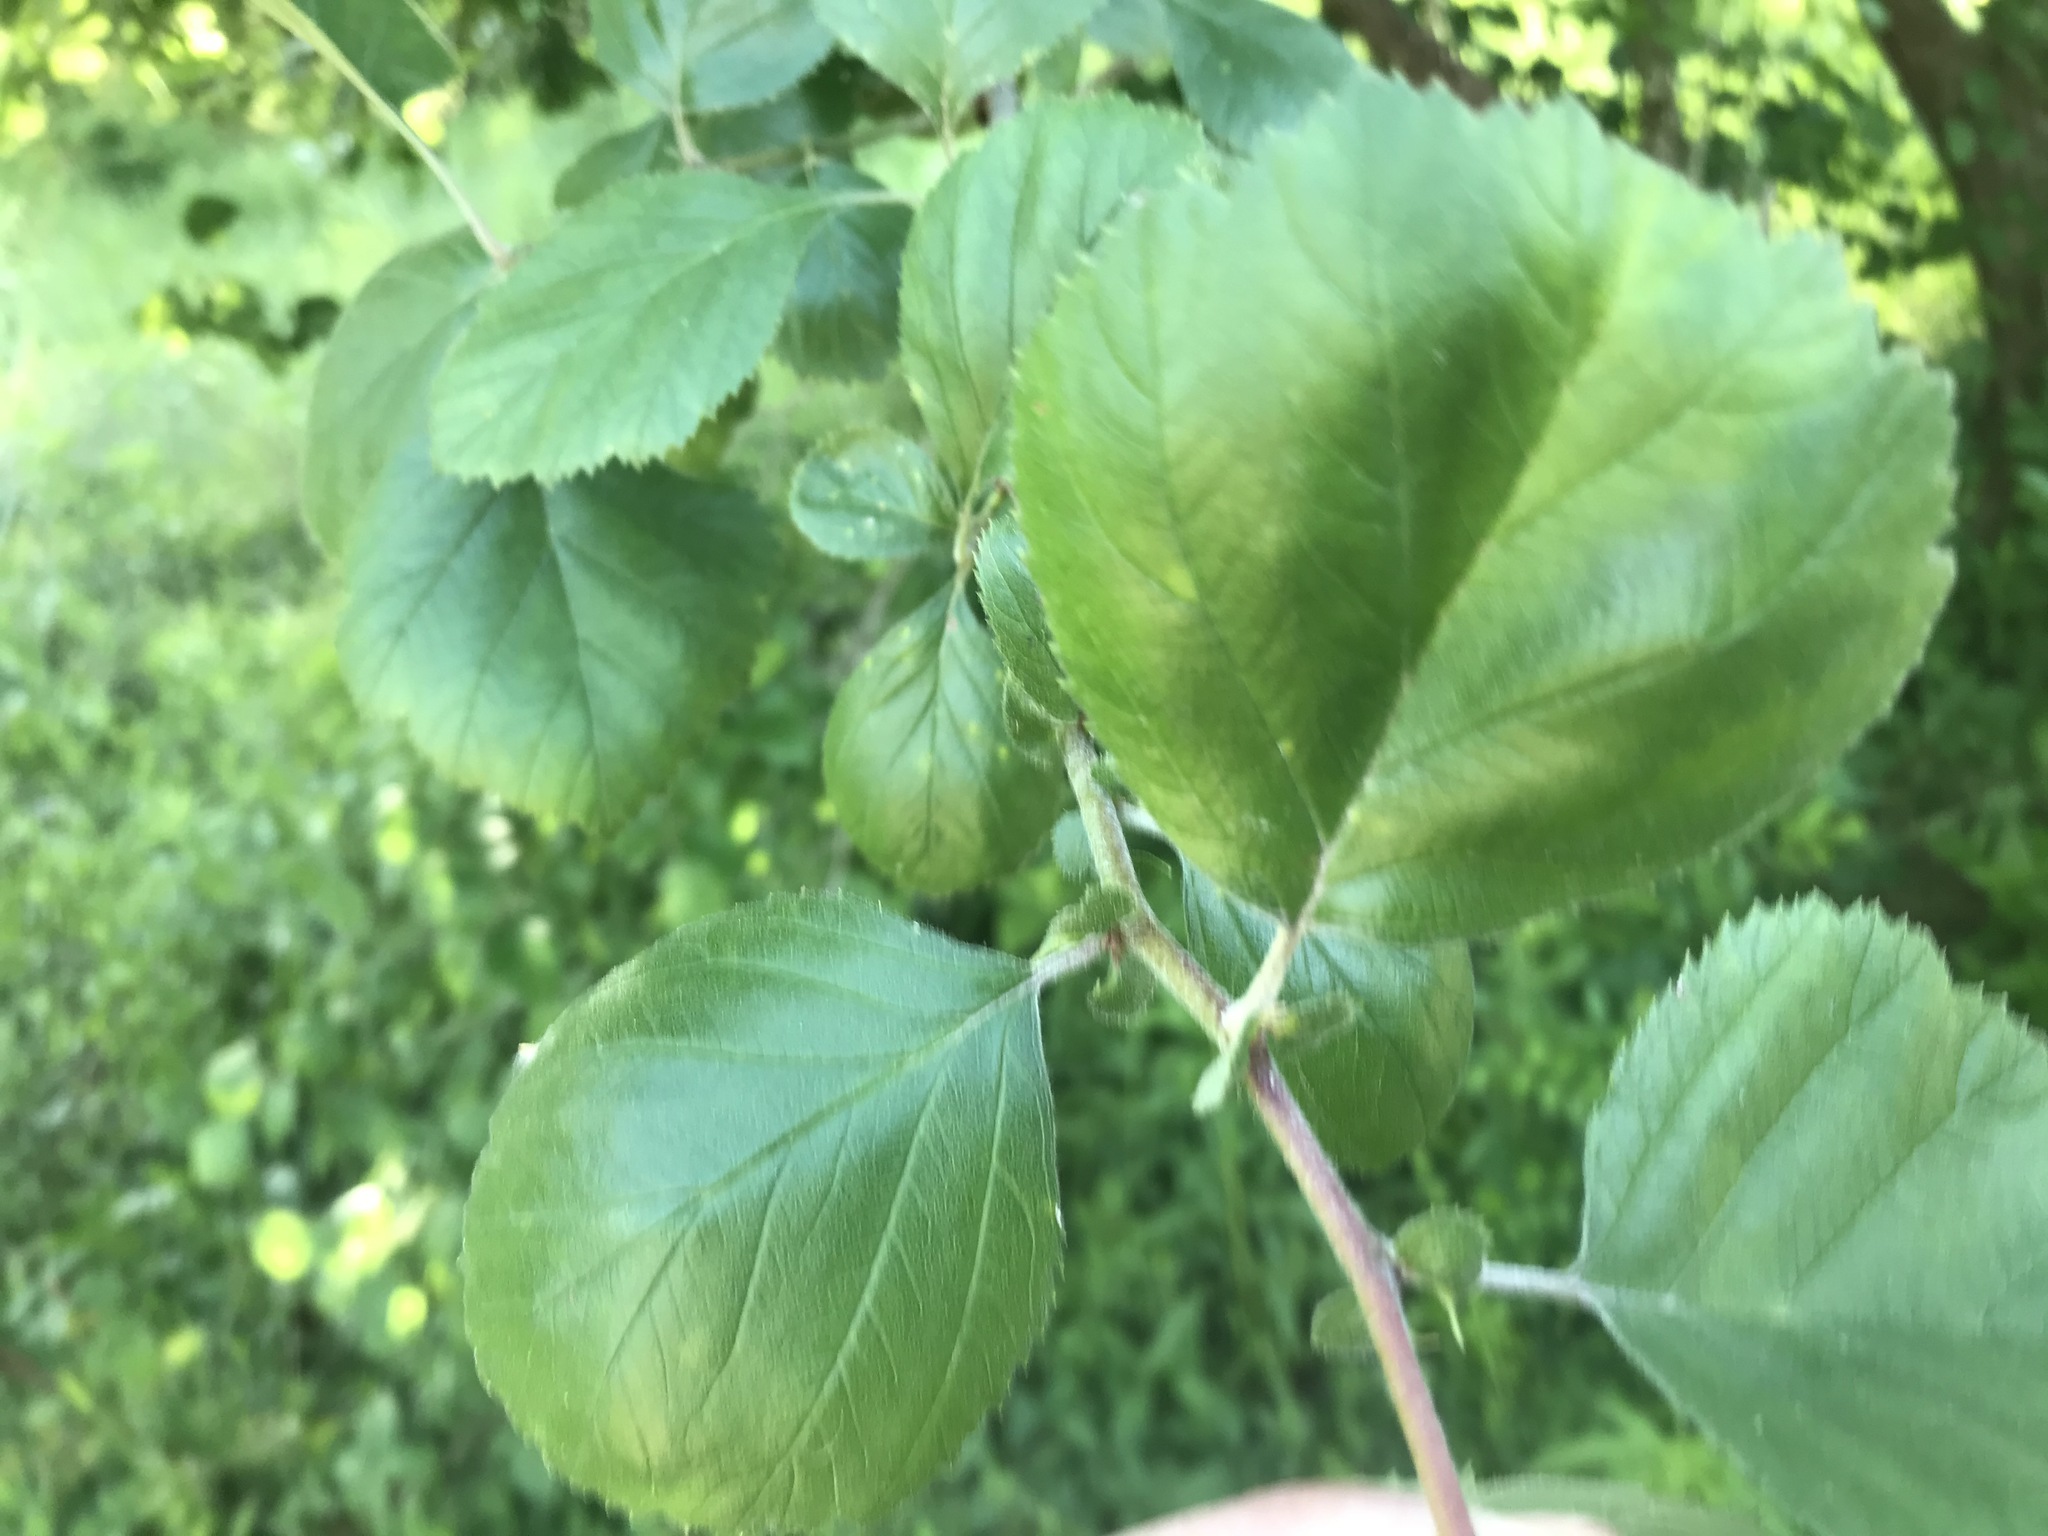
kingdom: Plantae
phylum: Tracheophyta
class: Magnoliopsida
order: Rosales
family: Rosaceae
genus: Crataegus
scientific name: Crataegus mollis
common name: Downy hawthorn
